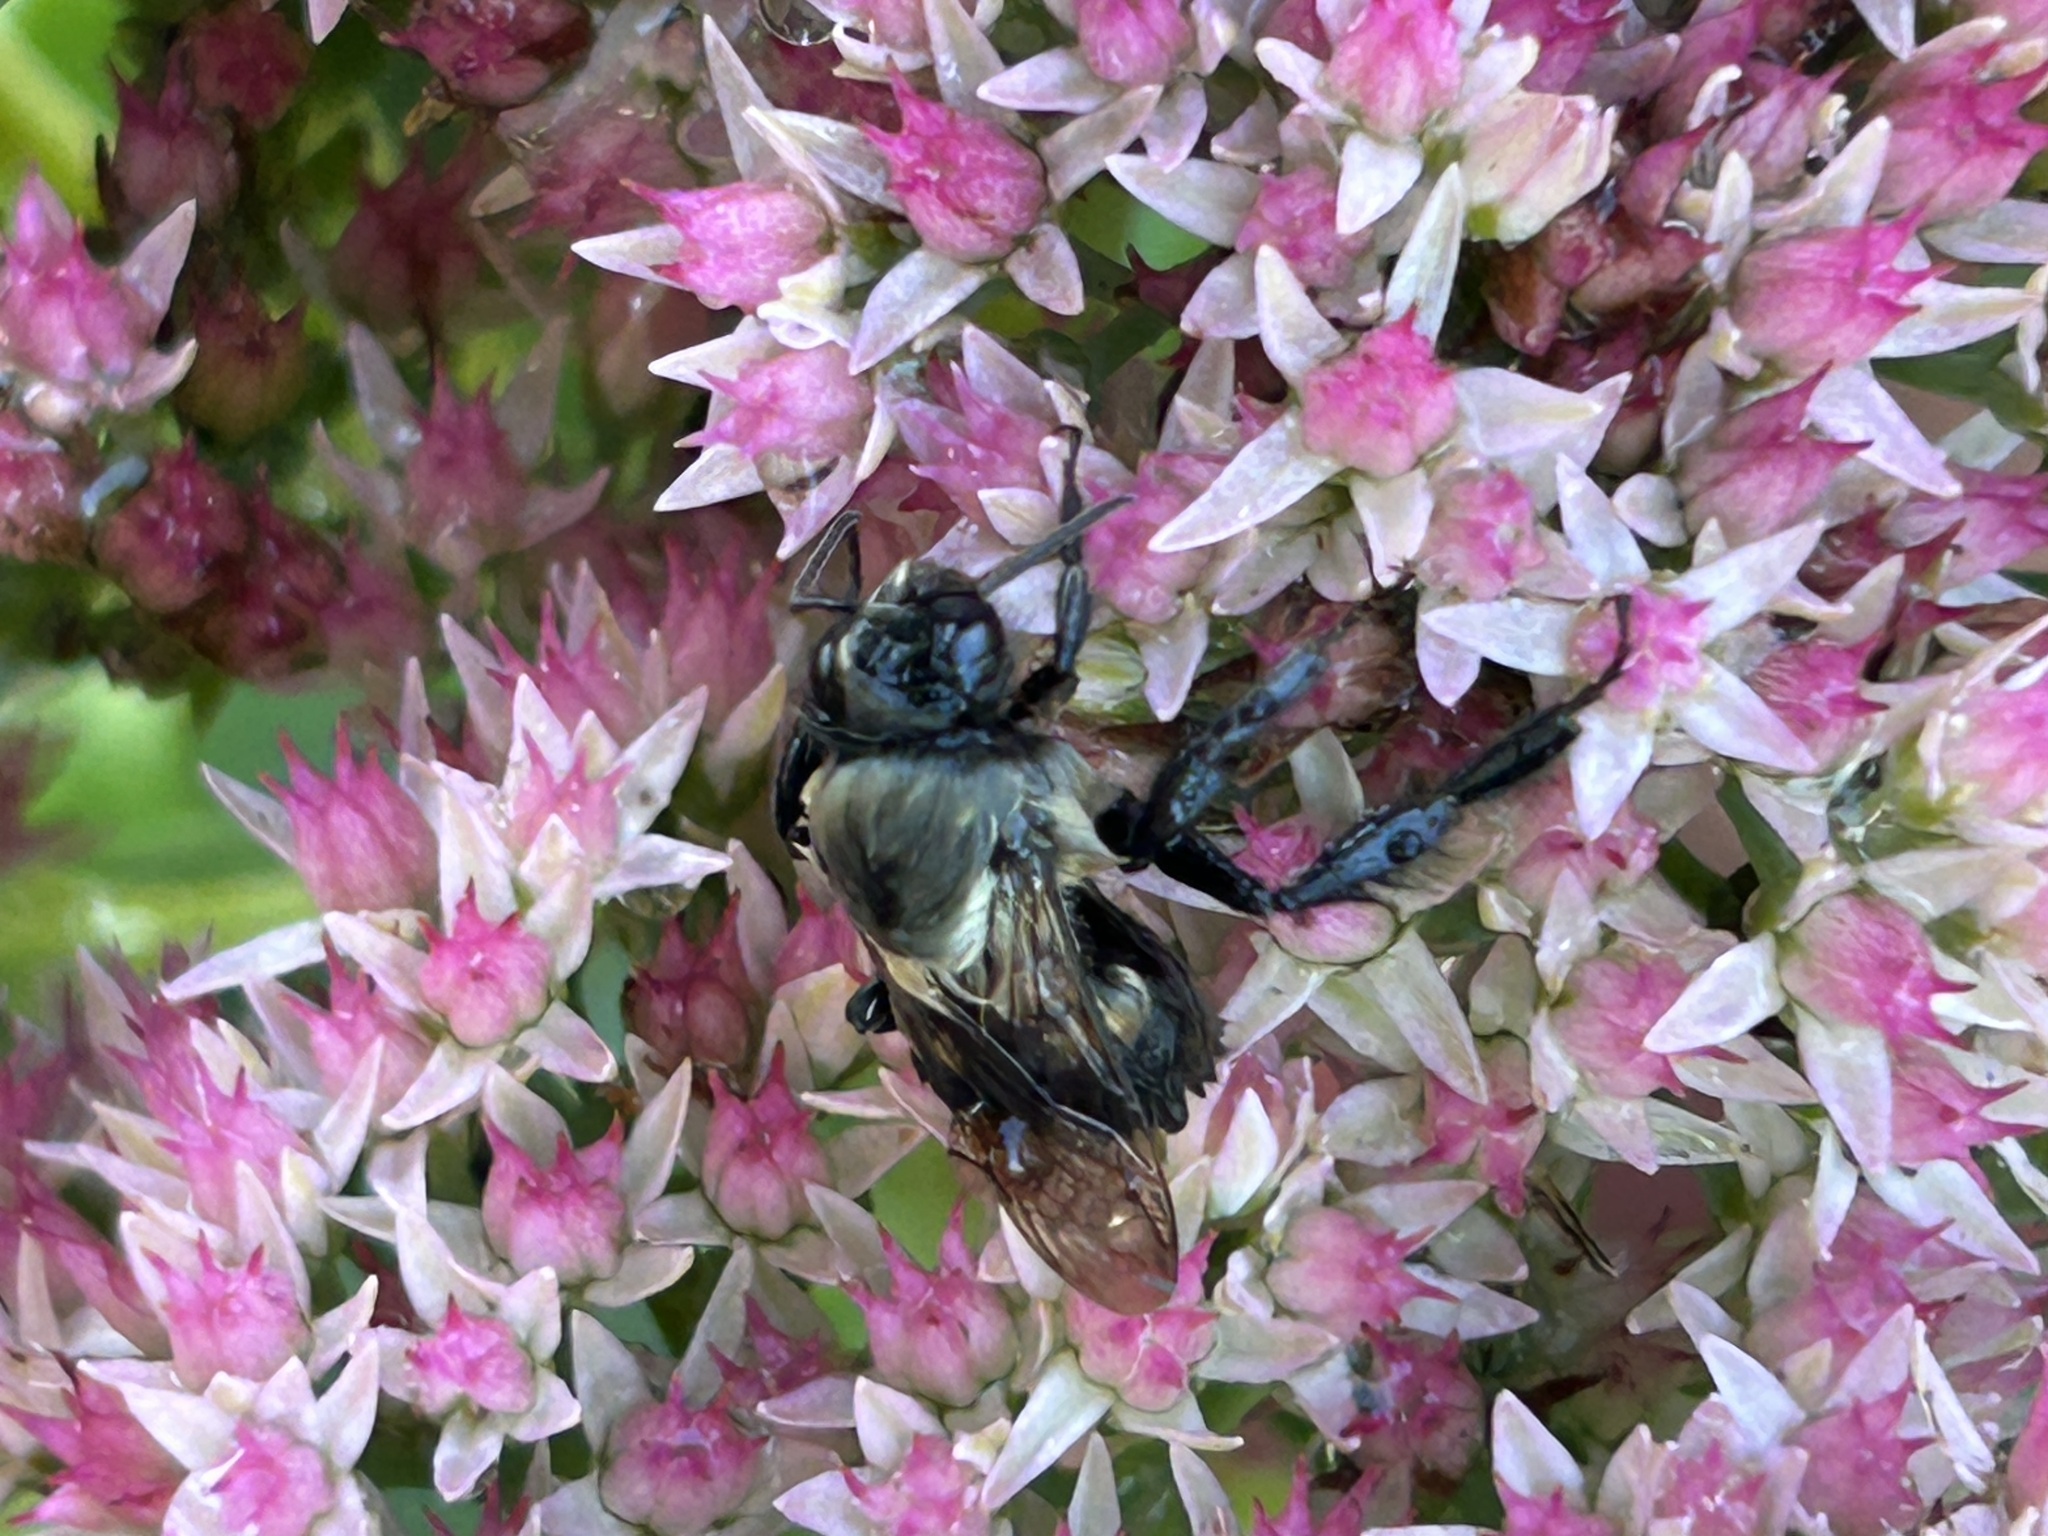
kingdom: Animalia
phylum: Arthropoda
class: Insecta
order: Hymenoptera
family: Apidae
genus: Bombus
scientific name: Bombus impatiens
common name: Common eastern bumble bee
